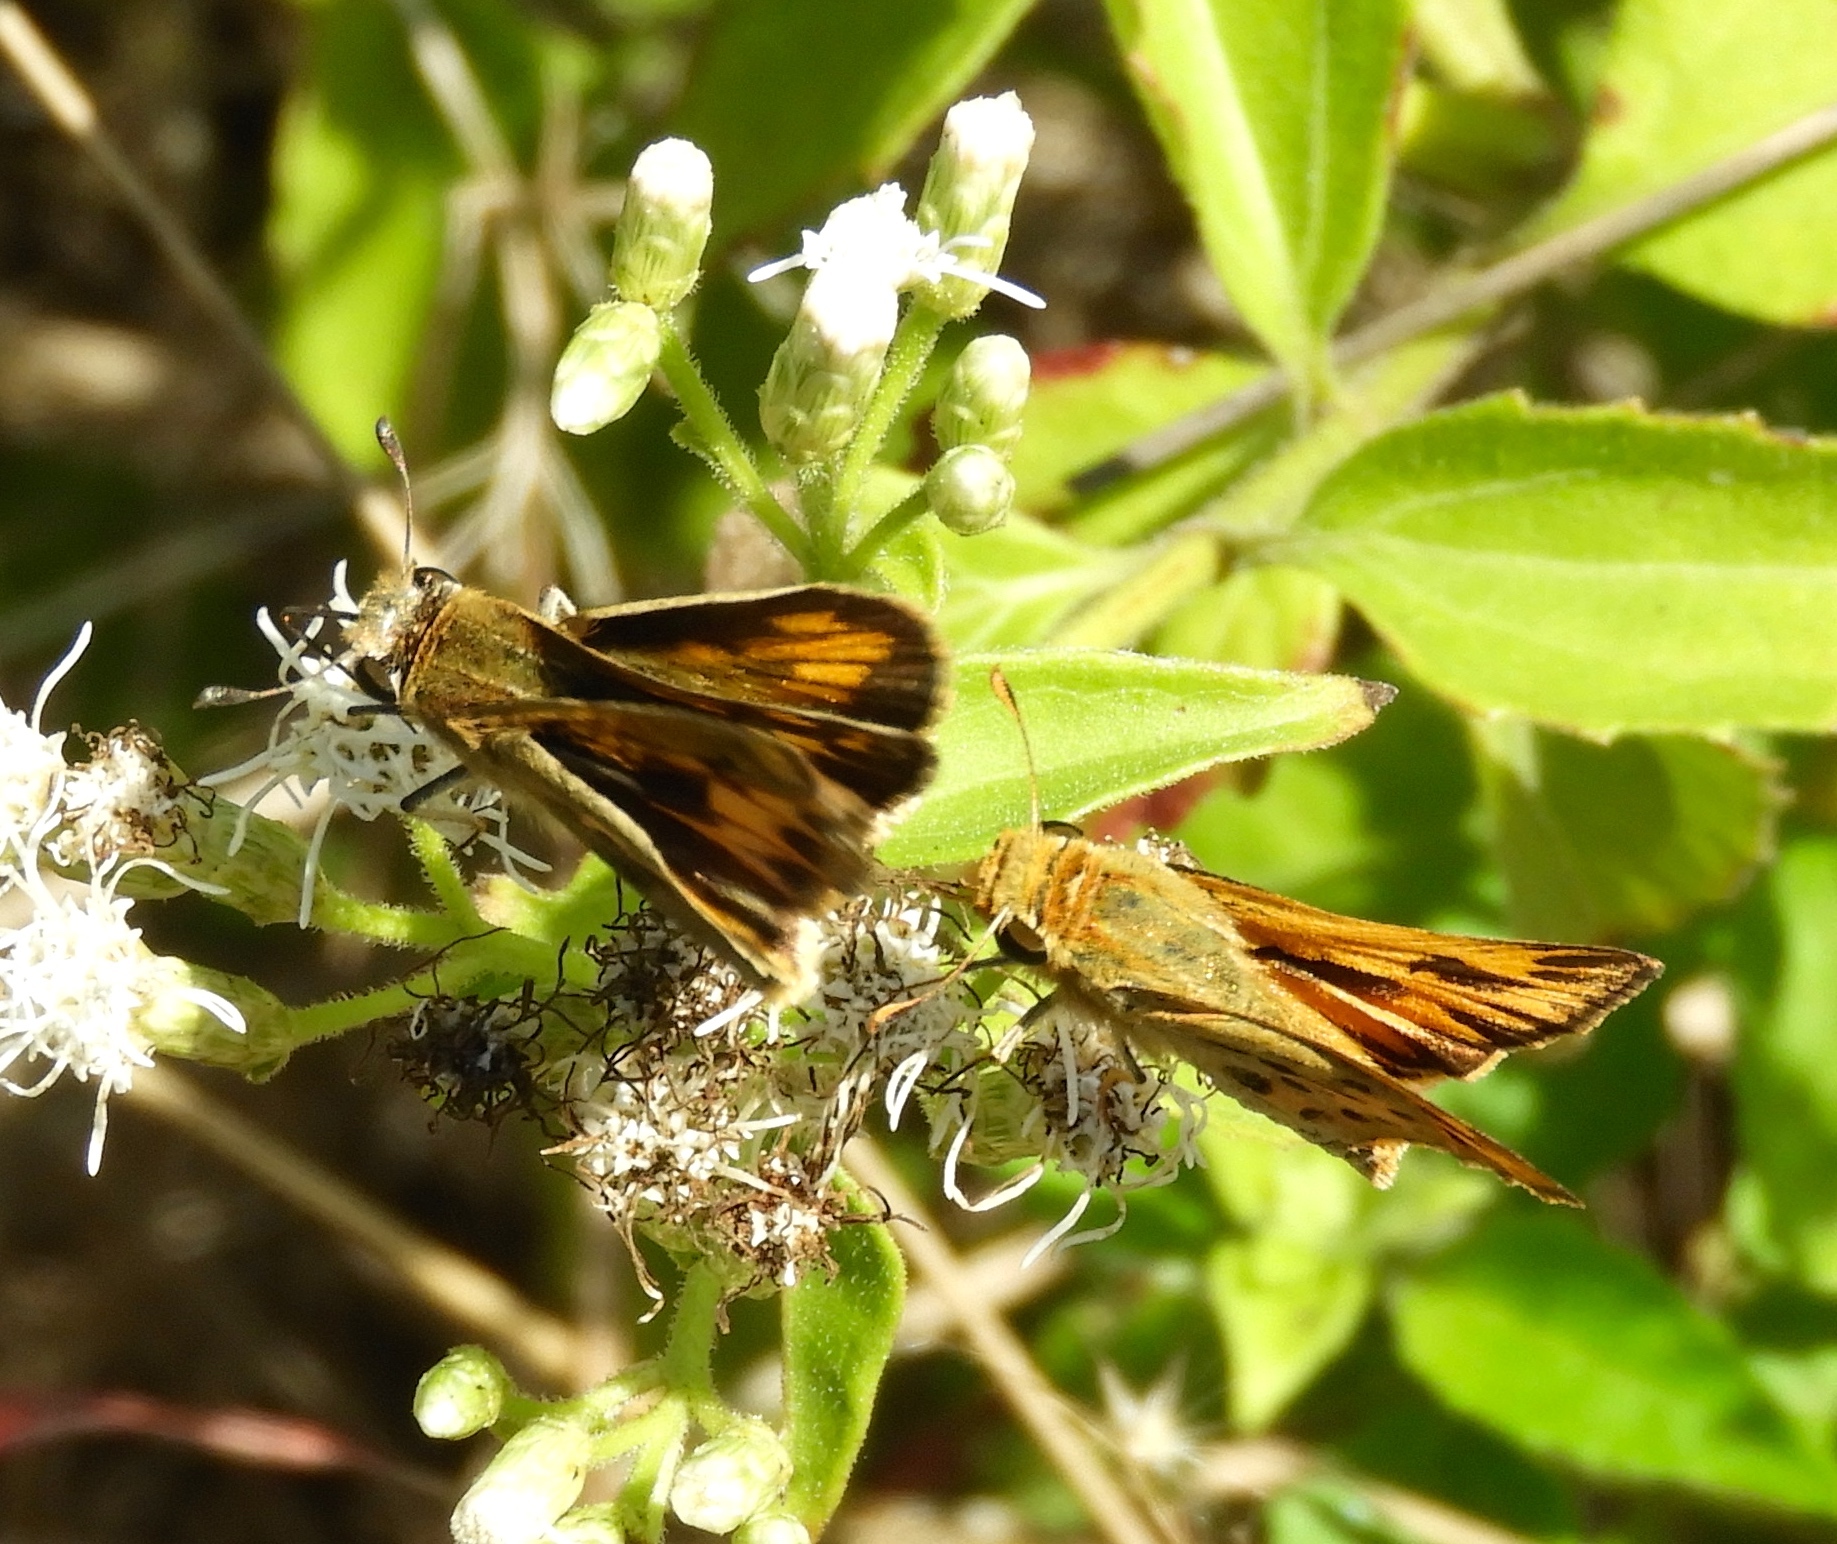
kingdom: Animalia
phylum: Arthropoda
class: Insecta
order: Lepidoptera
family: Hesperiidae
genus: Hylephila
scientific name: Hylephila phyleus
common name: Fiery skipper
